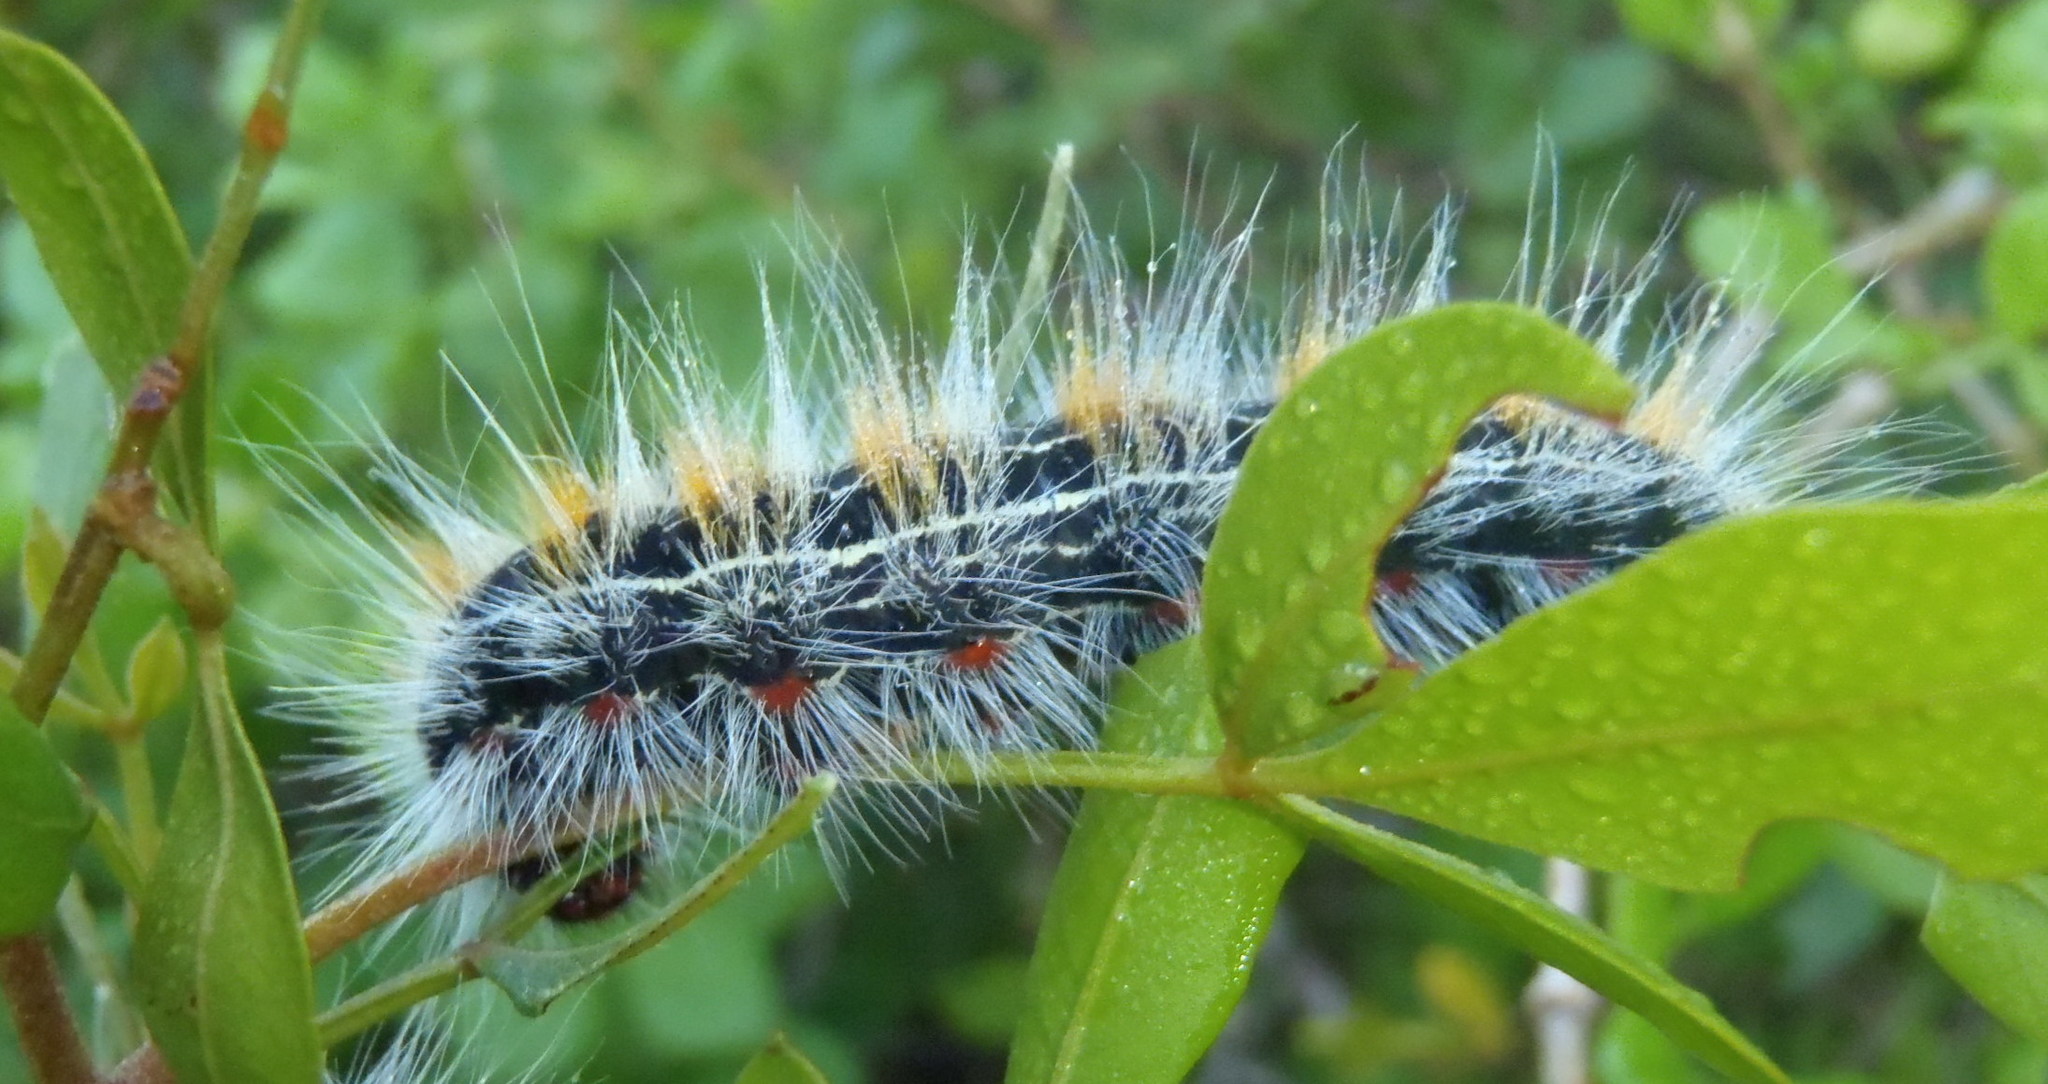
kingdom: Animalia
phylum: Arthropoda
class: Insecta
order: Lepidoptera
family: Lasiocampidae
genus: Bombycomorpha
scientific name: Bombycomorpha bifascia
